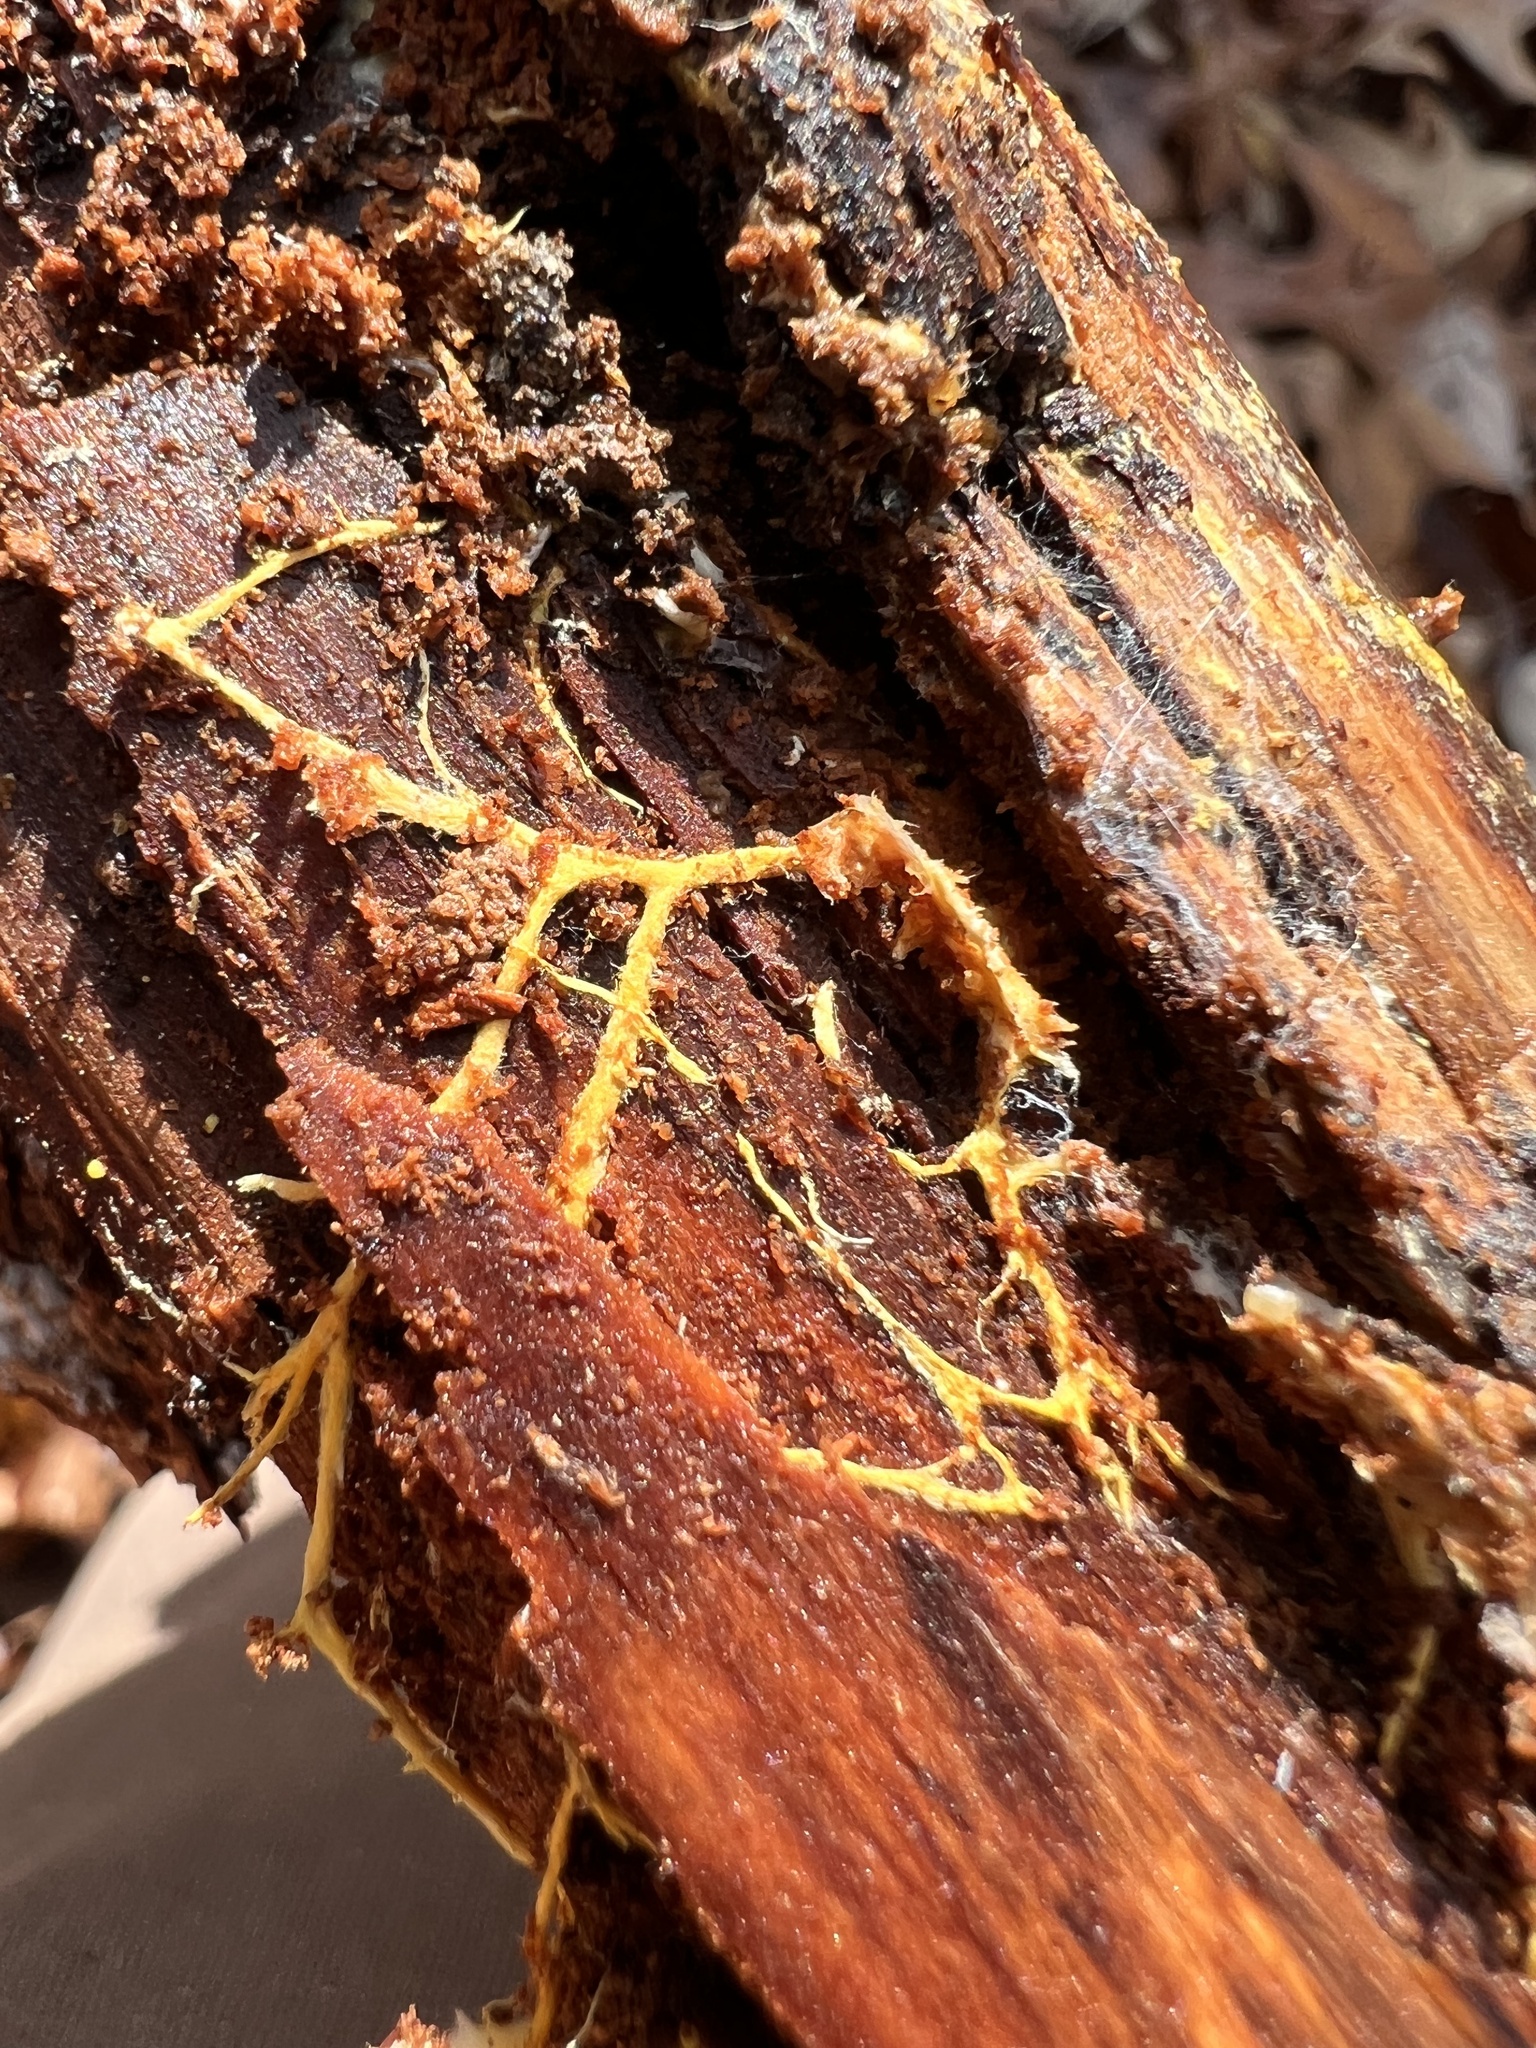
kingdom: Fungi
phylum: Basidiomycota
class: Agaricomycetes
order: Polyporales
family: Meruliaceae
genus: Hydnophlebia
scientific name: Hydnophlebia chrysorhiza
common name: Spreading yellow tooth
